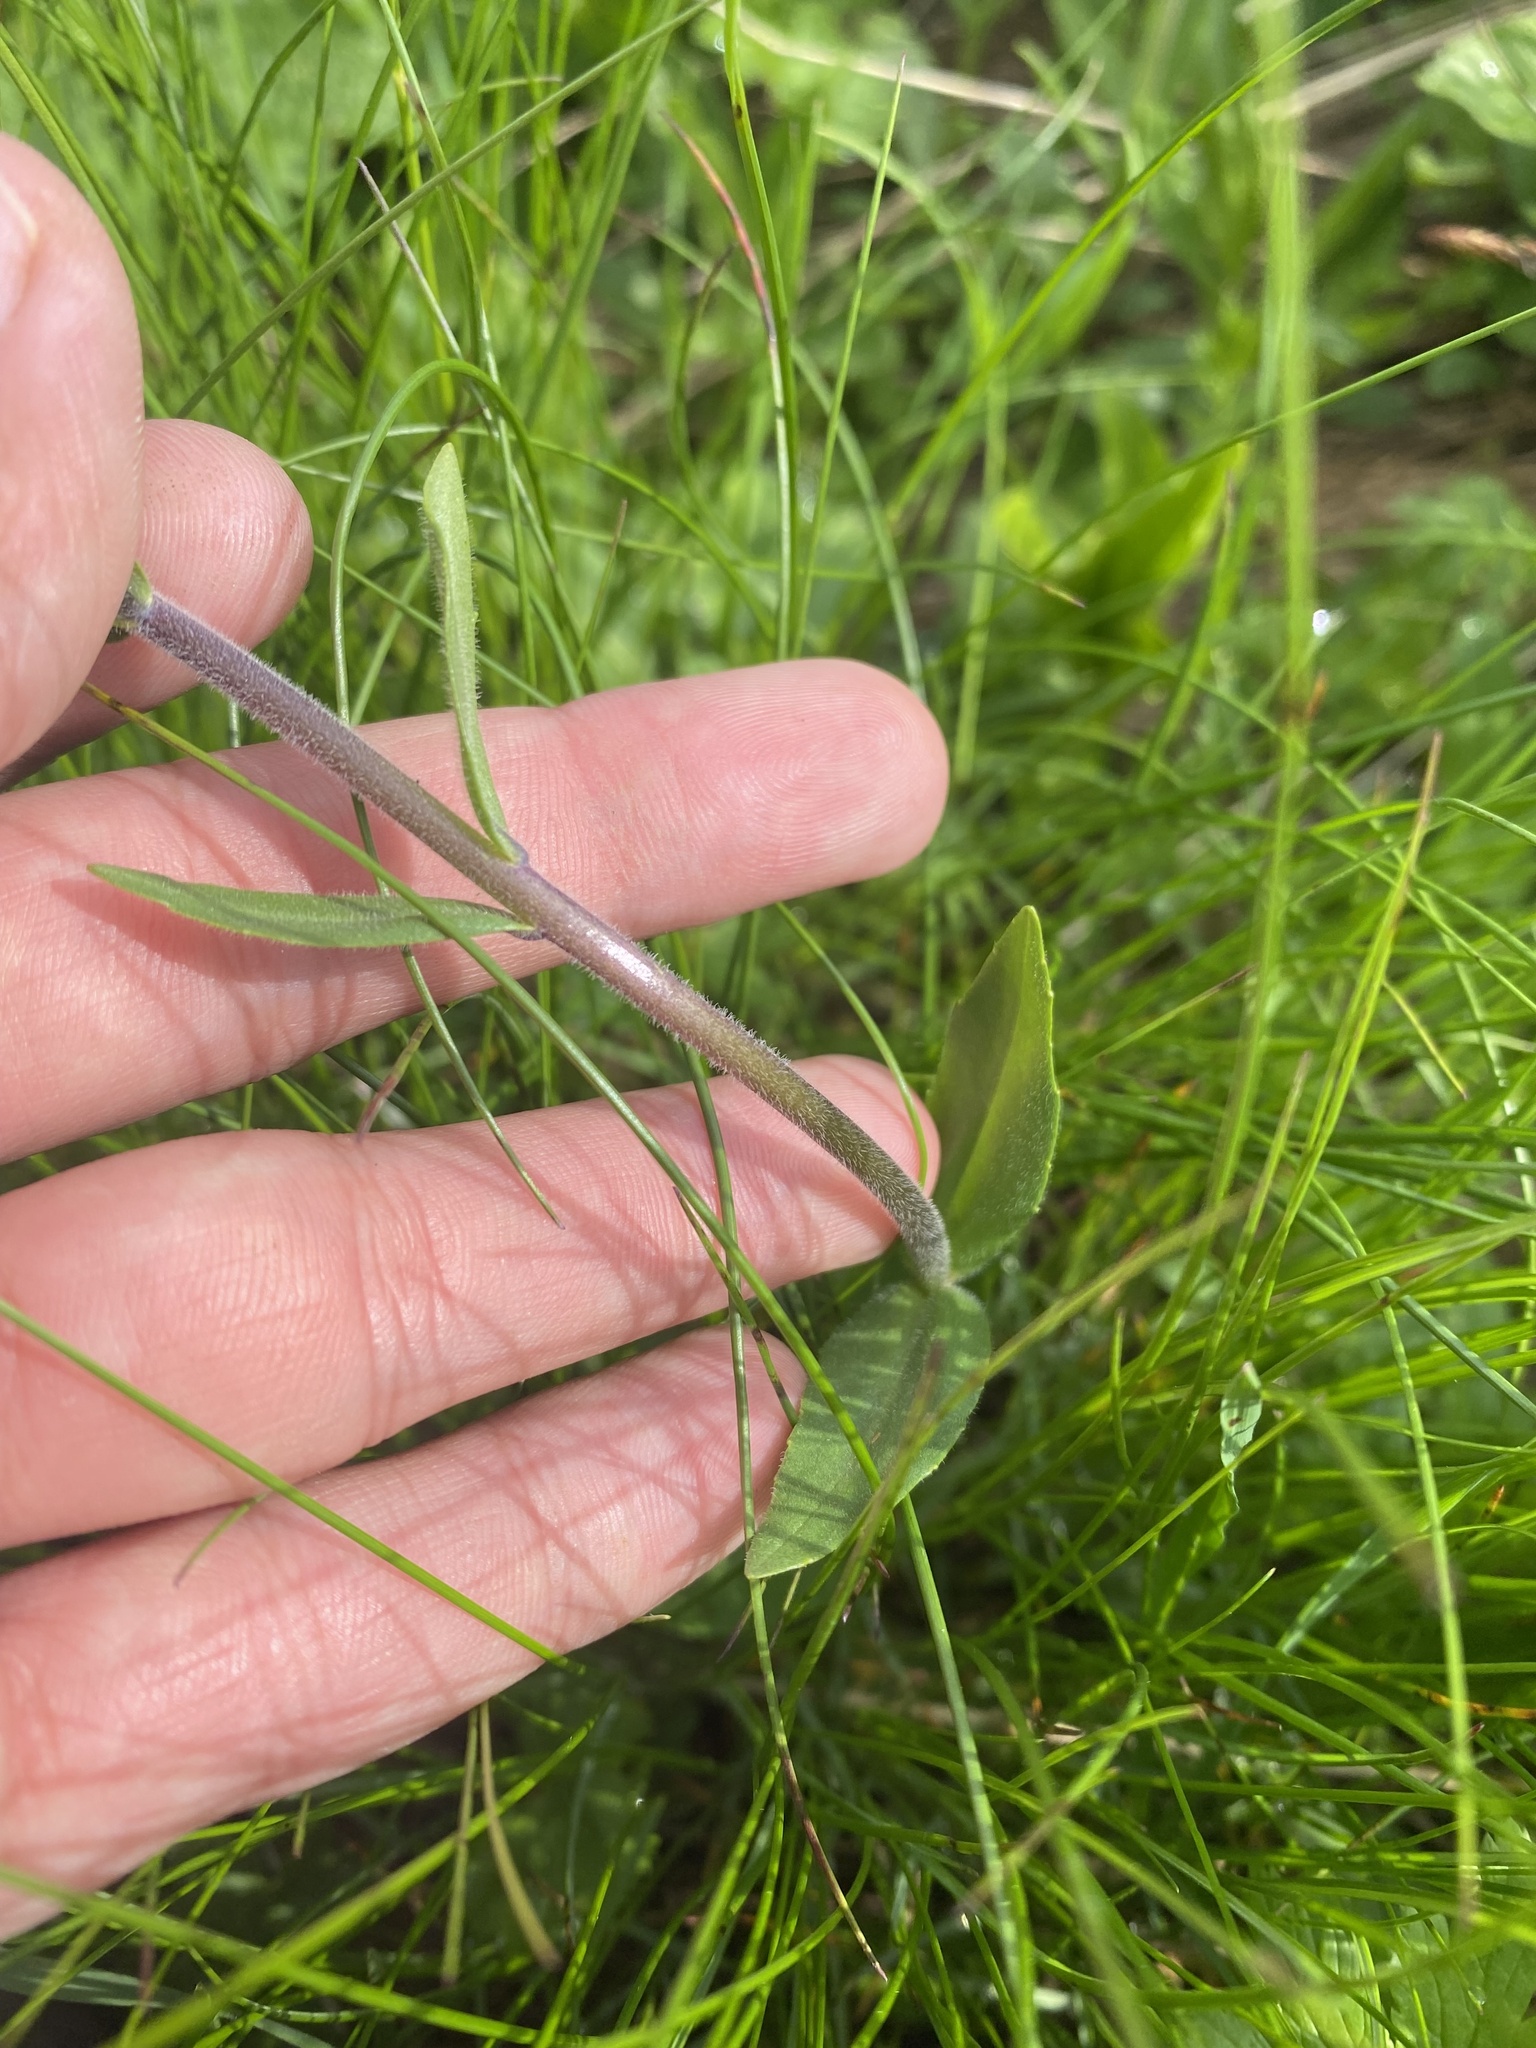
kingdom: Plantae
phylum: Tracheophyta
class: Magnoliopsida
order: Lamiales
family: Plantaginaceae
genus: Veronica
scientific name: Veronica gentianoides
